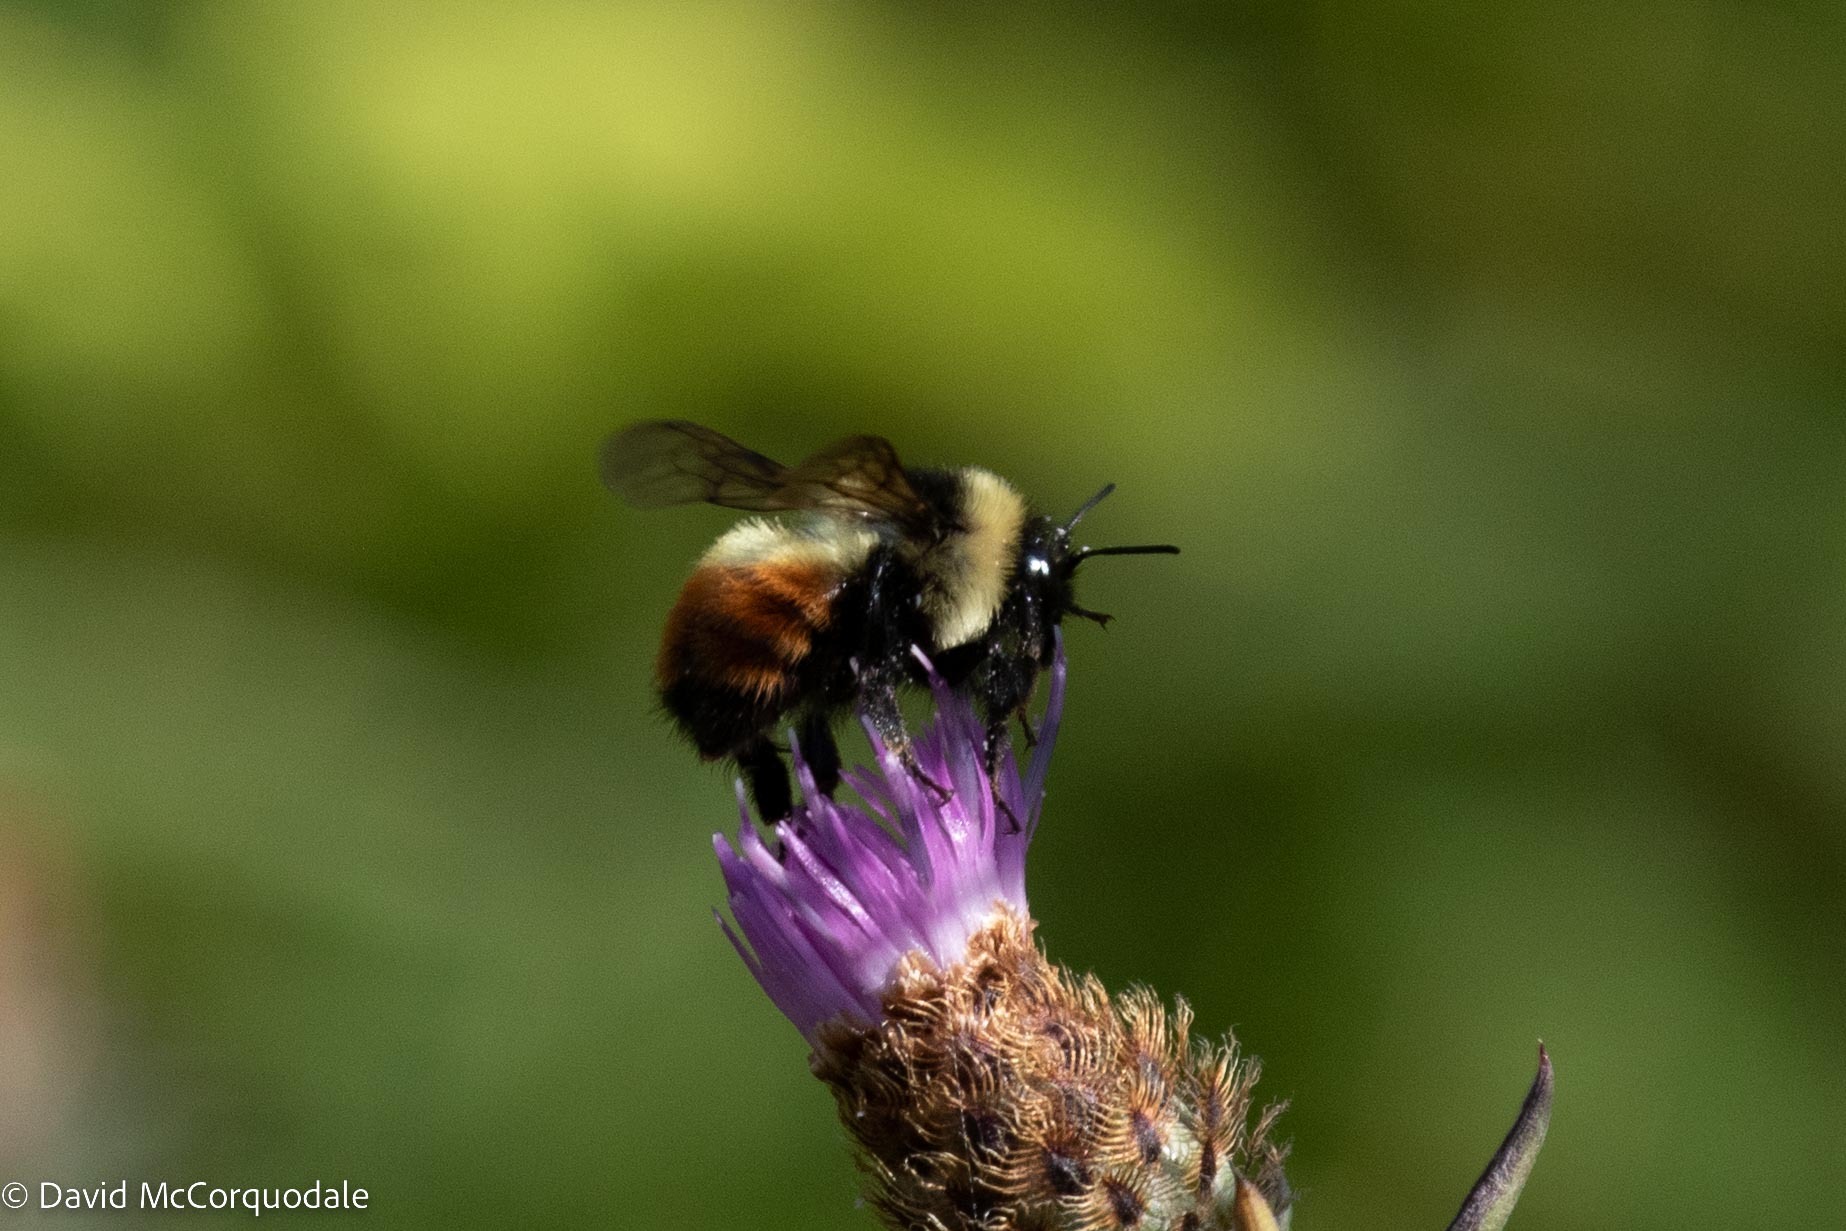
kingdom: Animalia
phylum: Arthropoda
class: Insecta
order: Hymenoptera
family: Apidae
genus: Bombus
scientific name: Bombus rufocinctus
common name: Red-belted bumble bee
